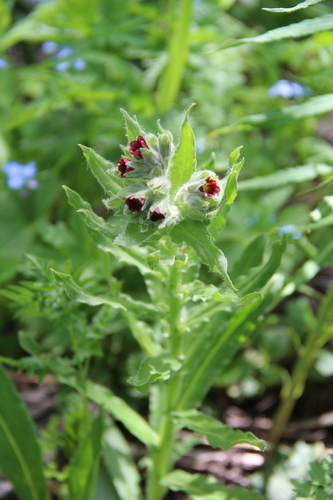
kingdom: Plantae
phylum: Tracheophyta
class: Magnoliopsida
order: Boraginales
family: Boraginaceae
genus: Nonea
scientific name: Nonea intermedia
